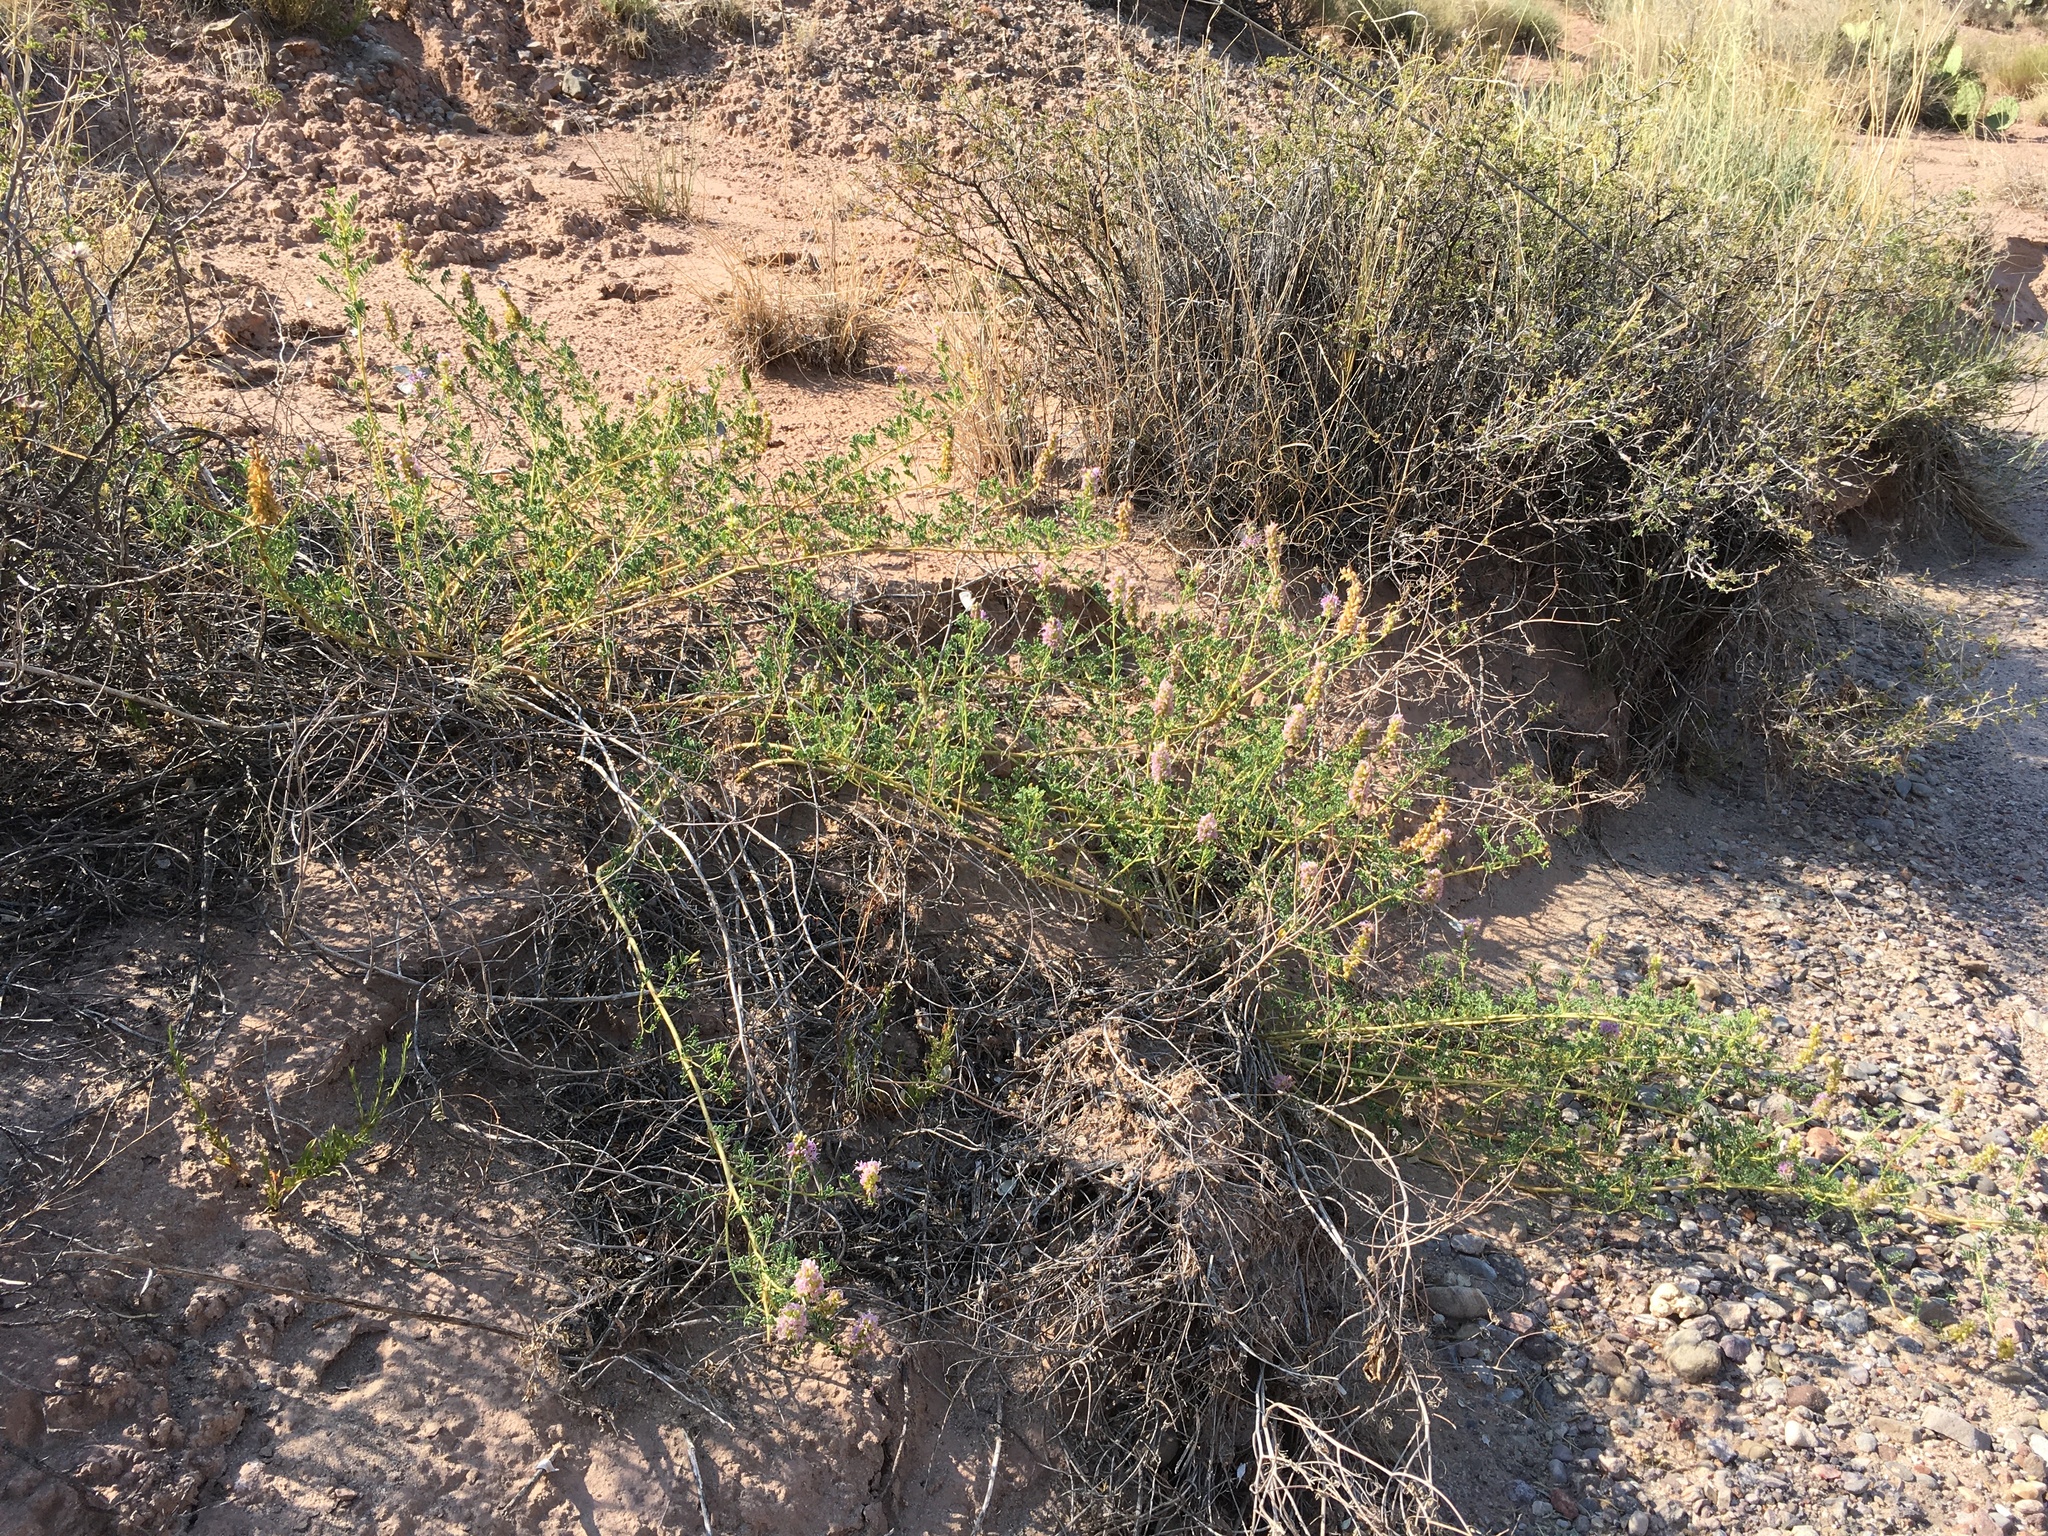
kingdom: Plantae
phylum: Tracheophyta
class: Magnoliopsida
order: Fabales
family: Fabaceae
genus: Dalea
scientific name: Dalea scariosa
